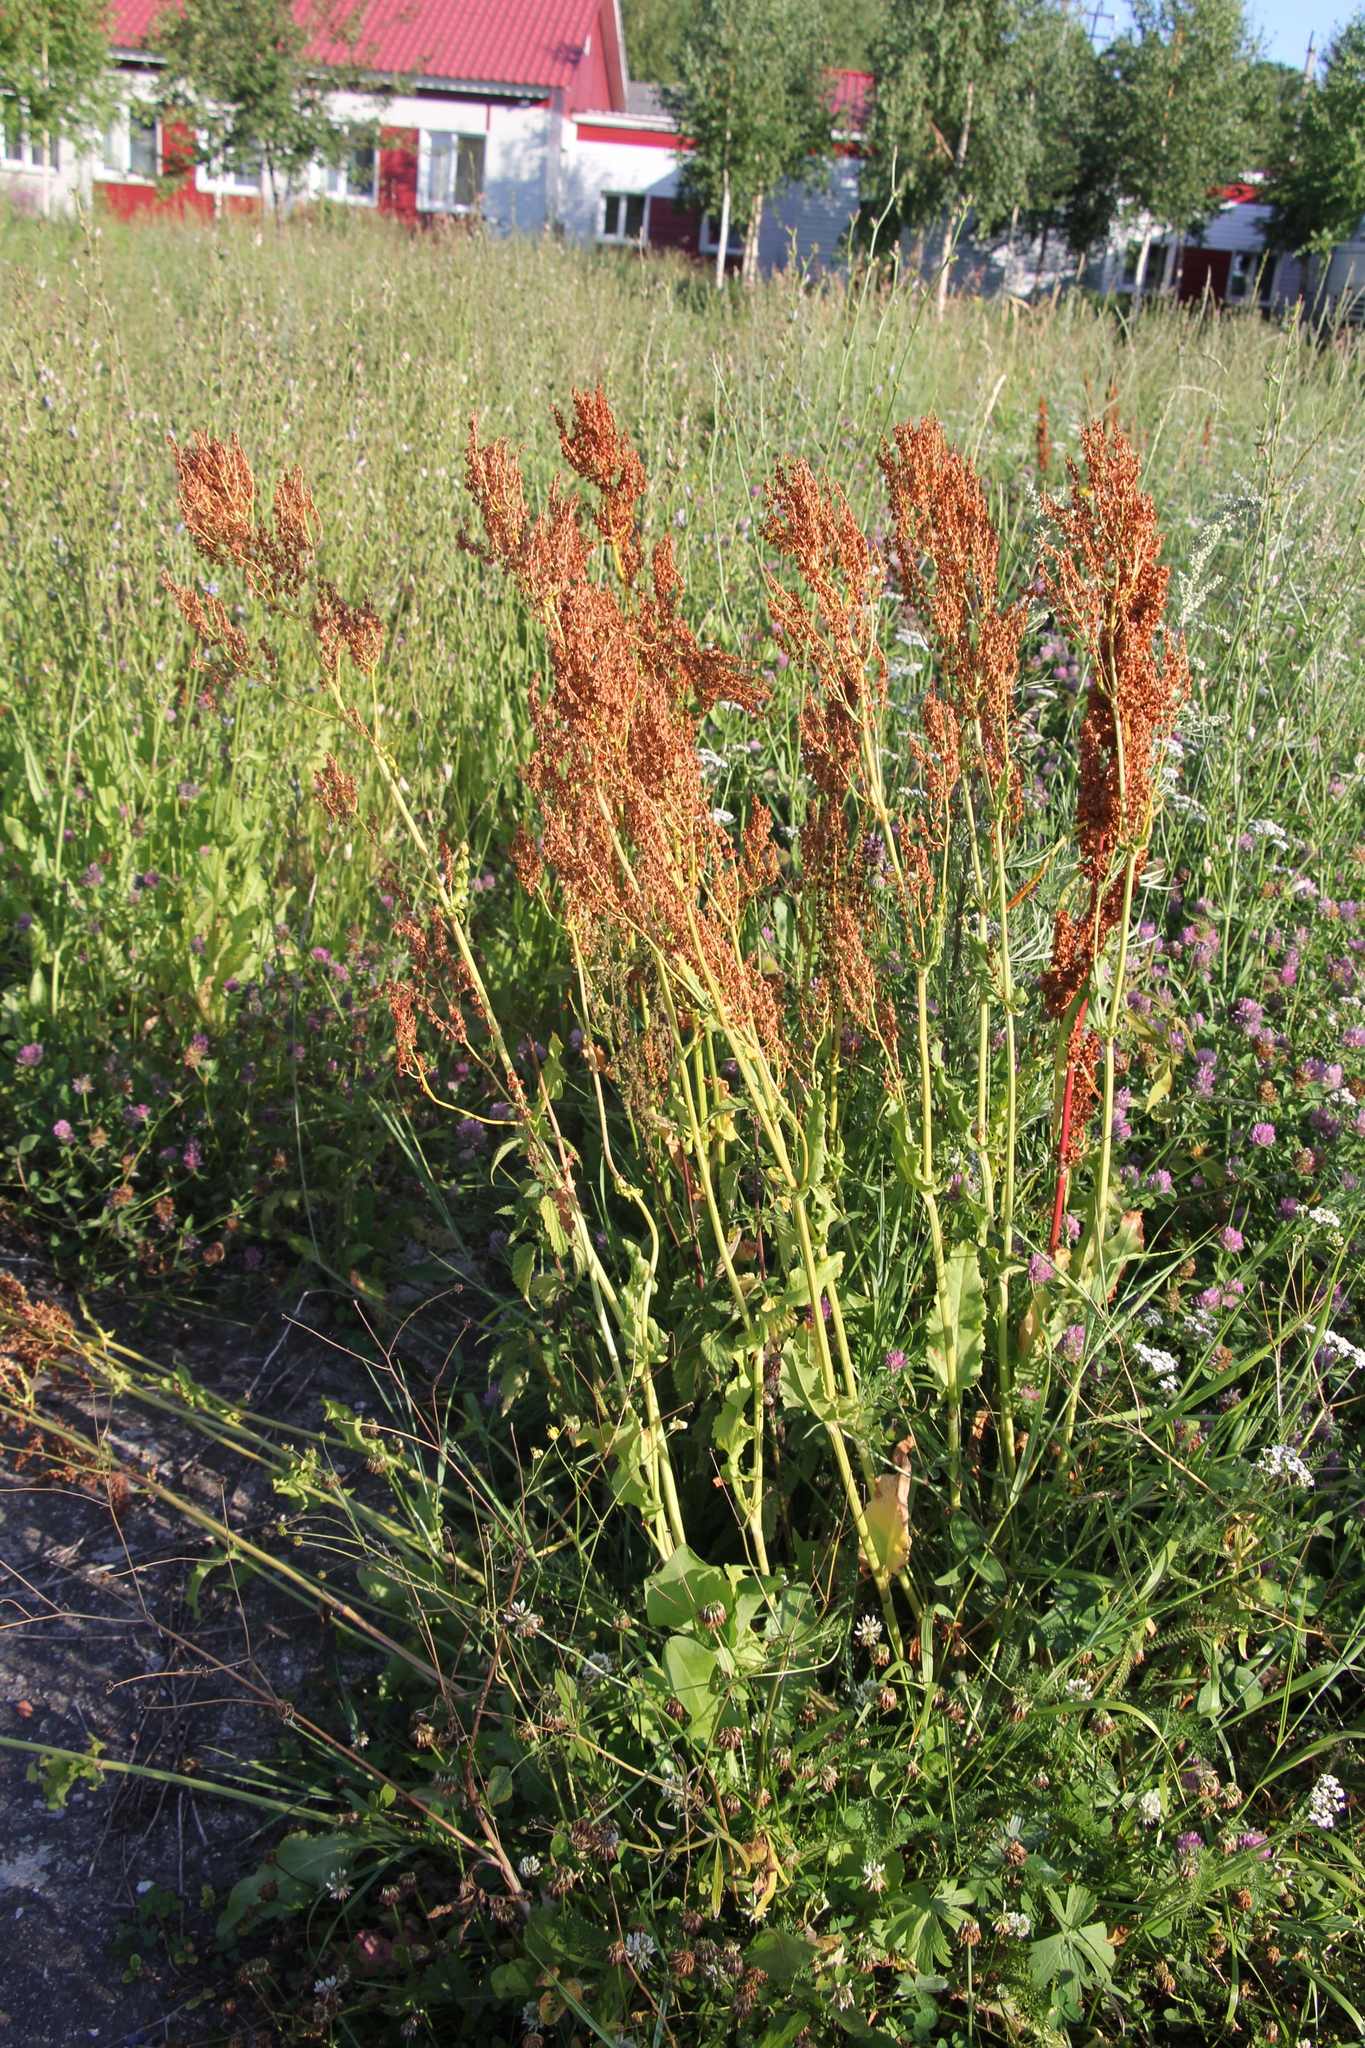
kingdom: Plantae
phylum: Tracheophyta
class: Magnoliopsida
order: Caryophyllales
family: Polygonaceae
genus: Rumex
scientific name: Rumex acetosa
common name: Garden sorrel
